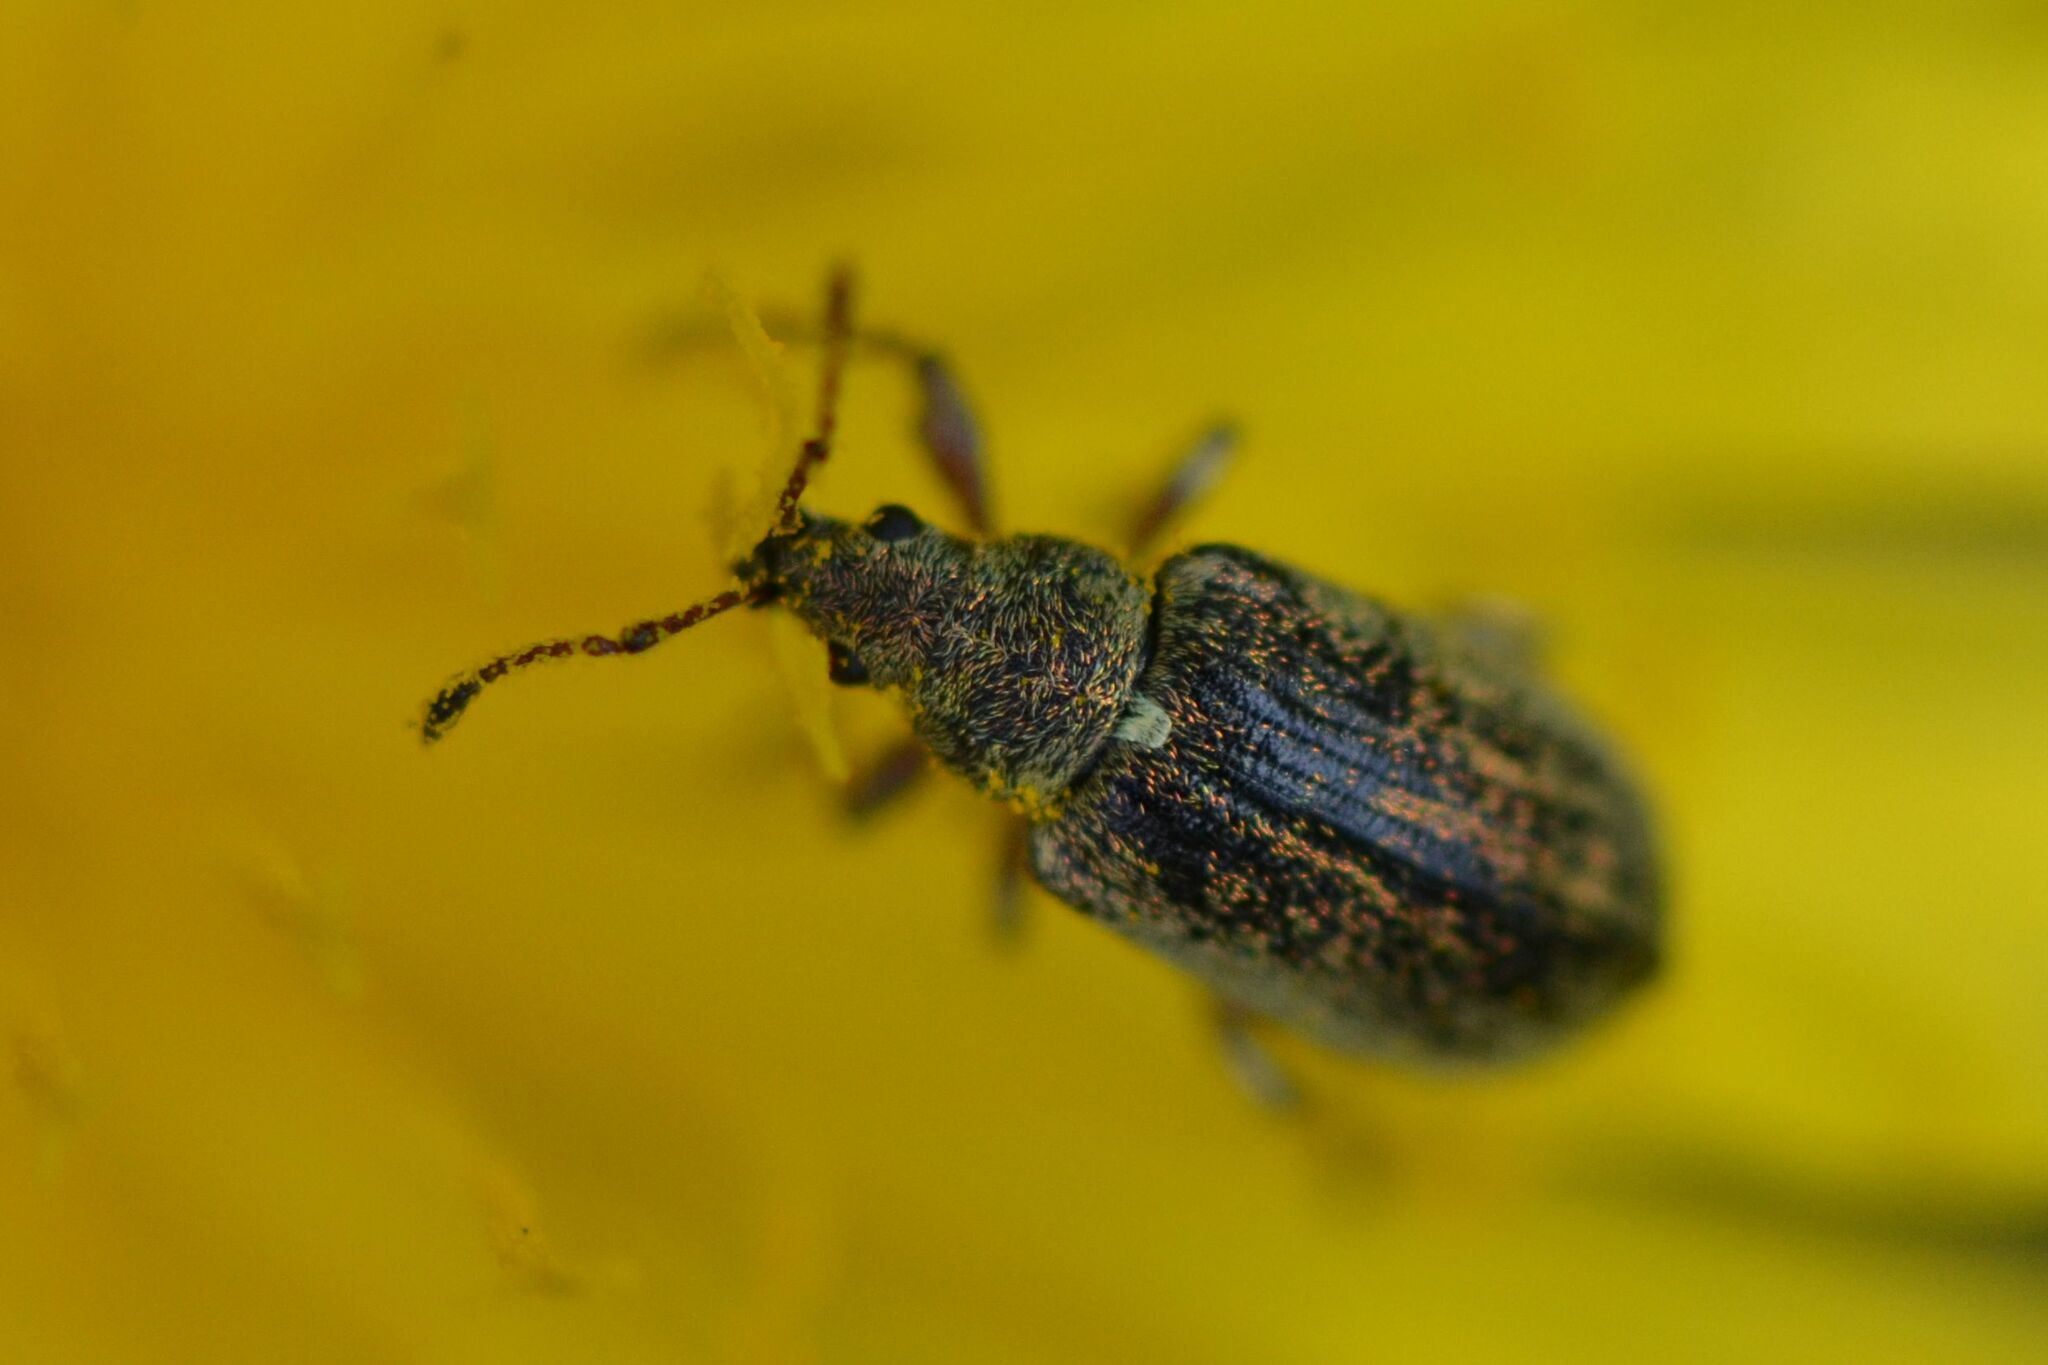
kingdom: Animalia
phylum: Arthropoda
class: Insecta
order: Coleoptera
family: Curculionidae
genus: Phyllobius
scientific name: Phyllobius pyri
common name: Common leaf weevil
